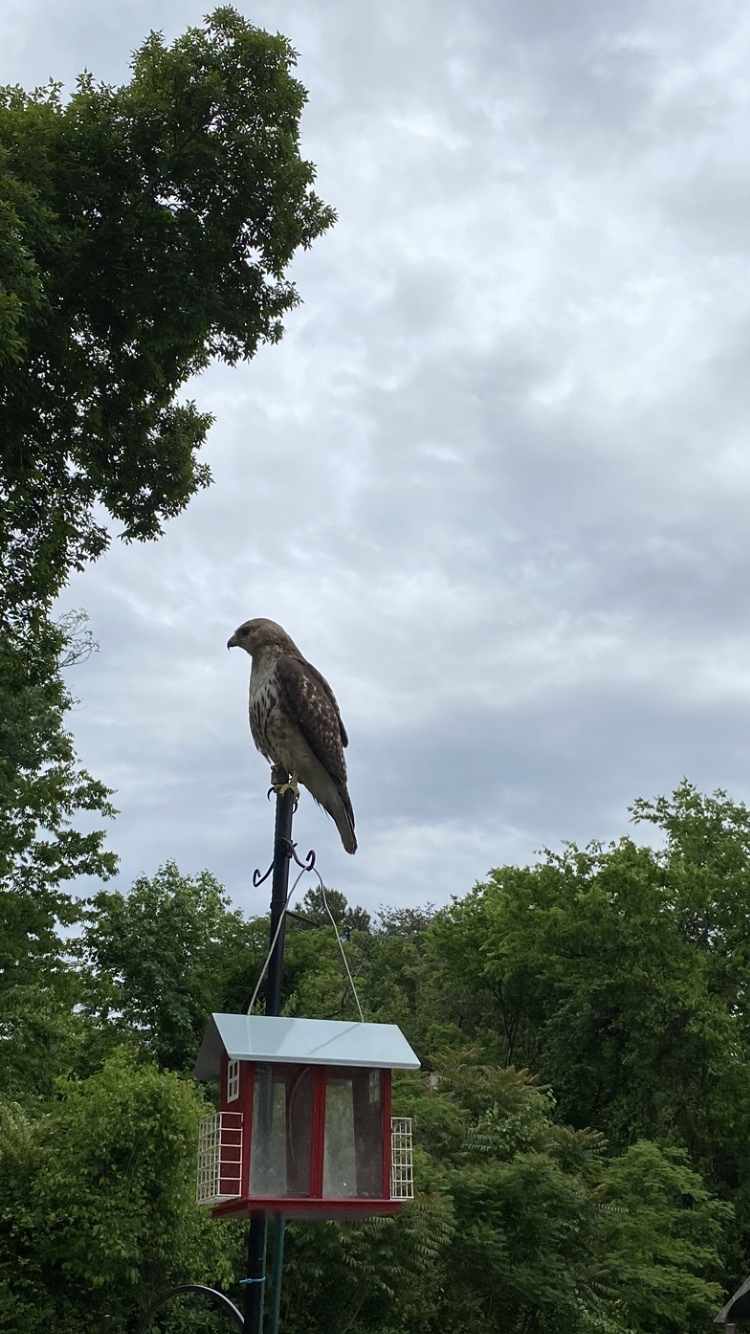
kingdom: Animalia
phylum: Chordata
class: Aves
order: Accipitriformes
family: Accipitridae
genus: Buteo
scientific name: Buteo jamaicensis
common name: Red-tailed hawk
